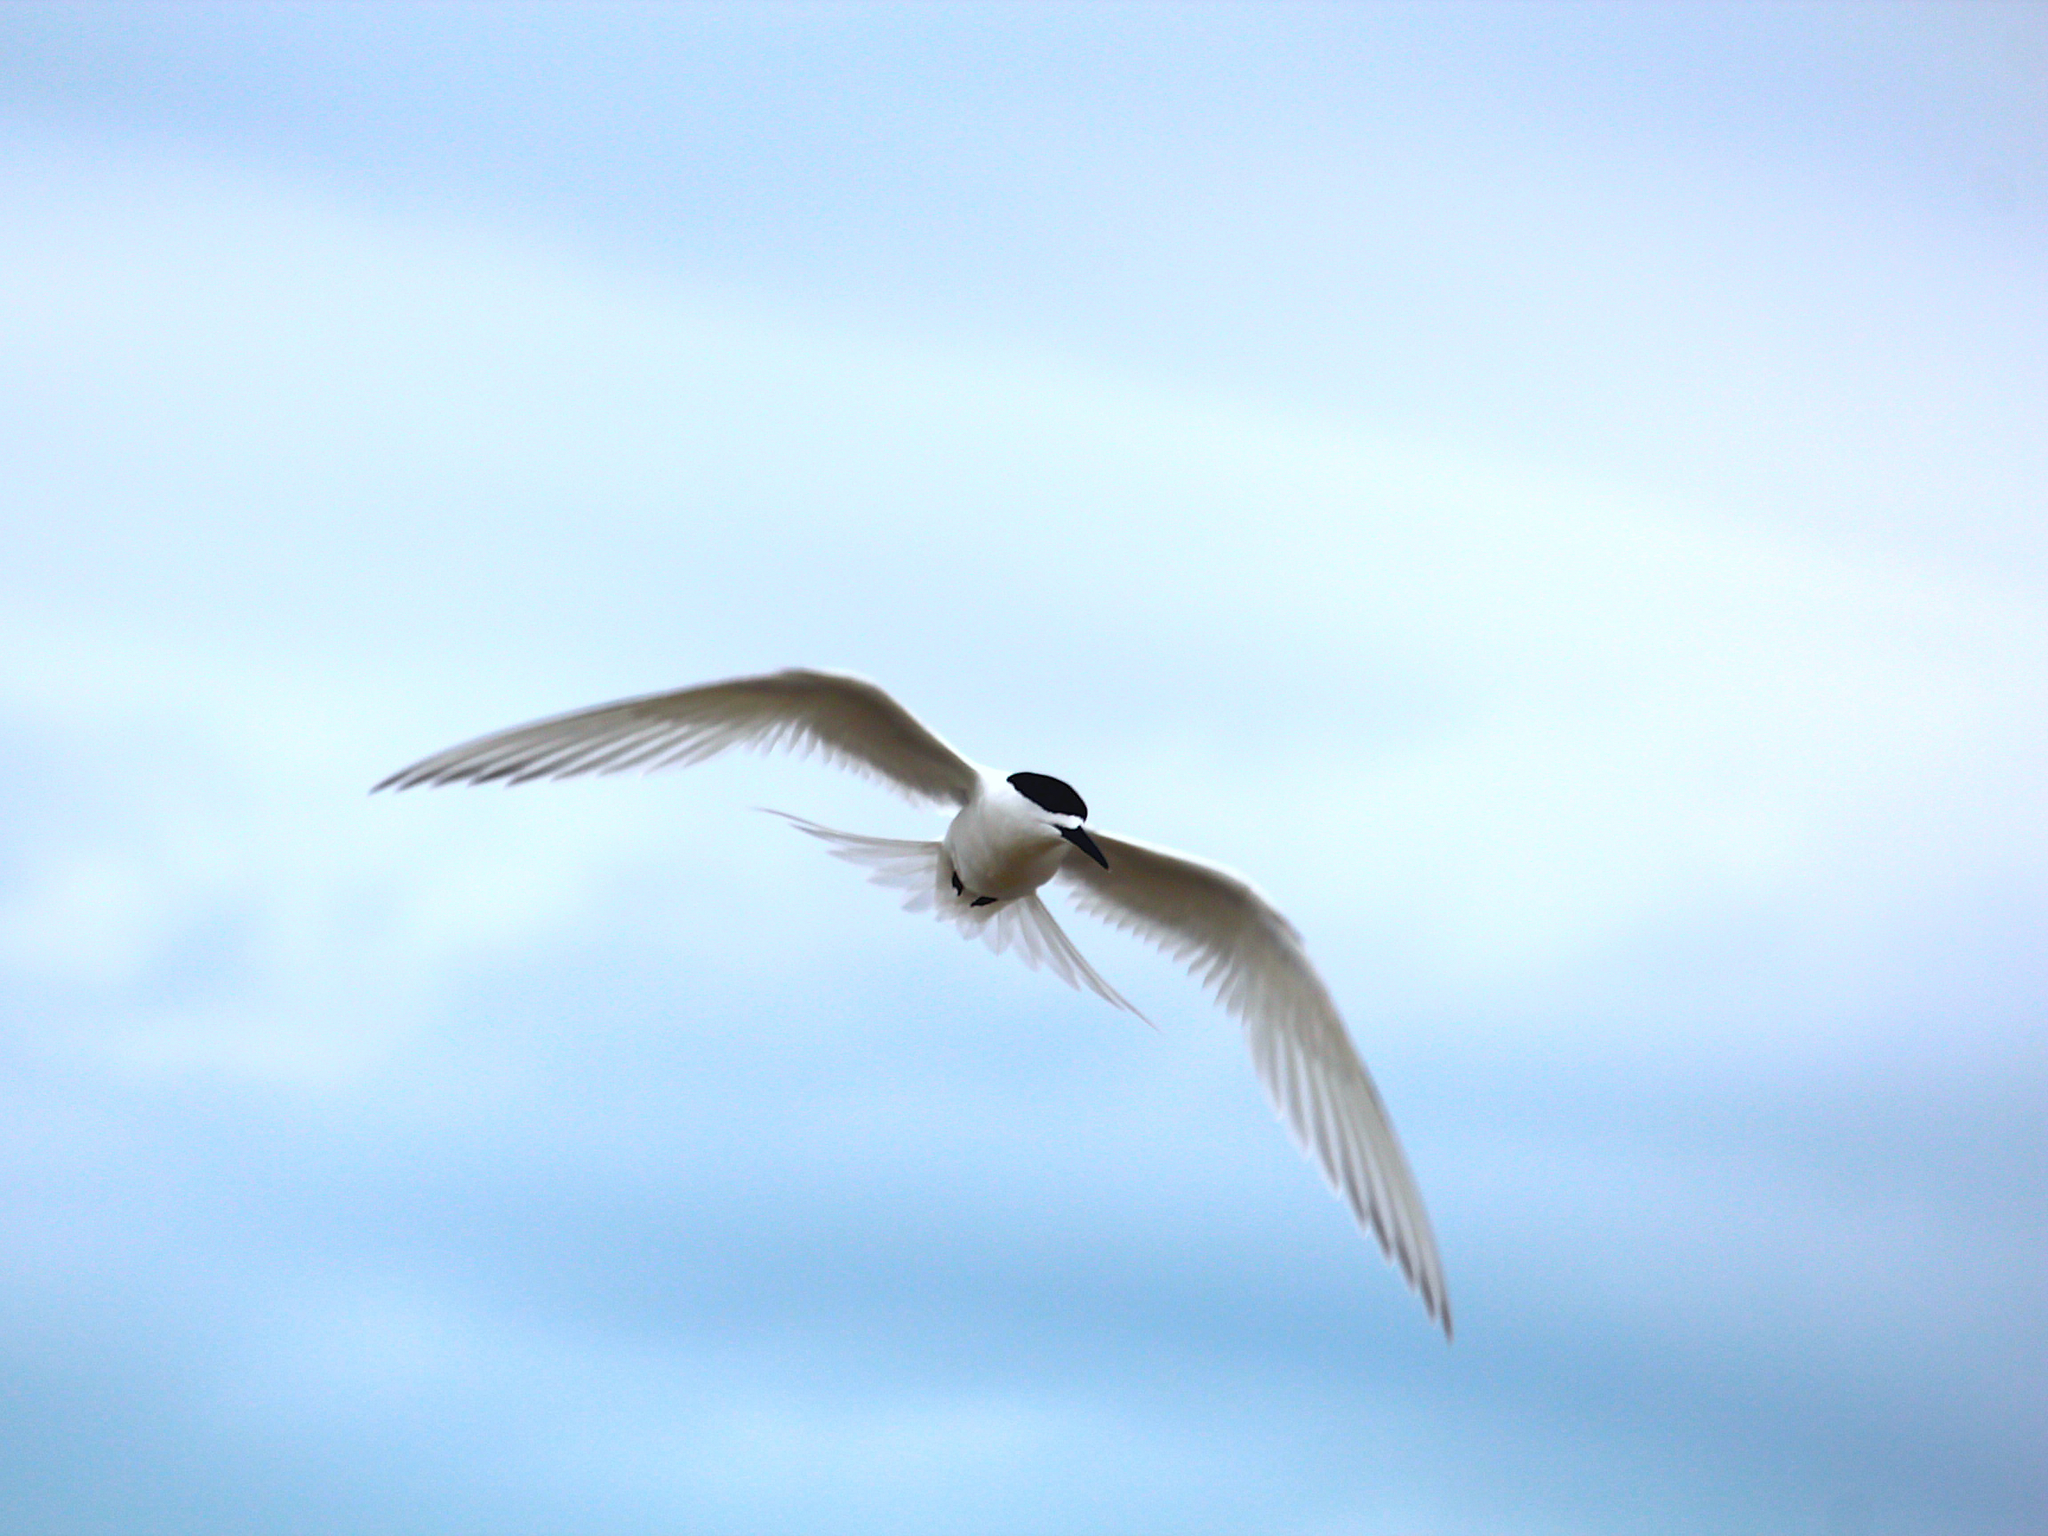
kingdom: Animalia
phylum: Chordata
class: Aves
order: Charadriiformes
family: Laridae
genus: Sterna
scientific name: Sterna striata
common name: White-fronted tern
